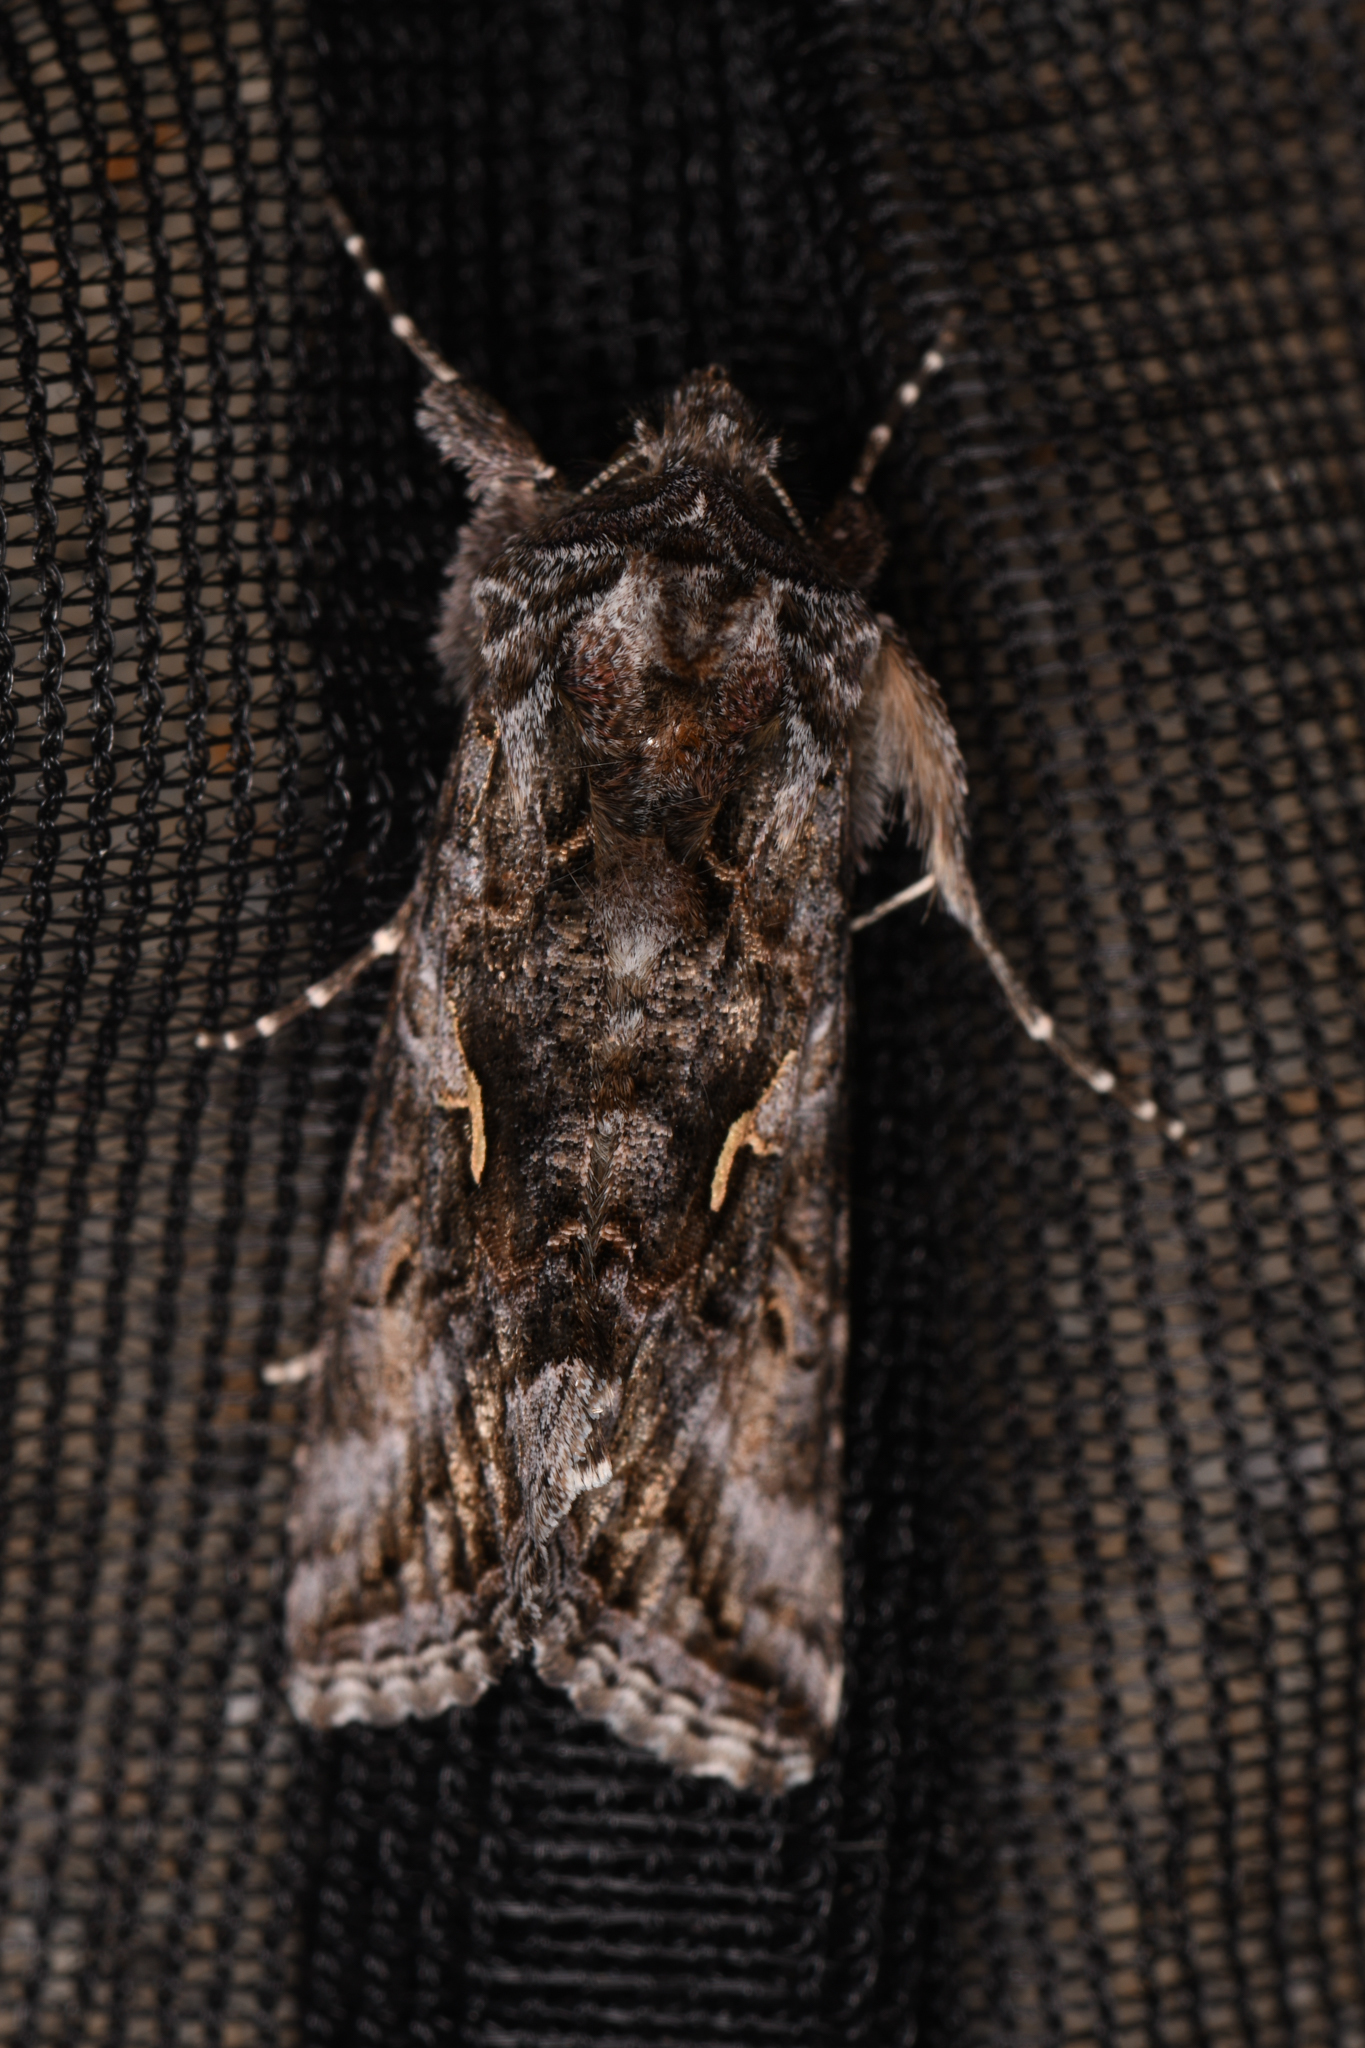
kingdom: Animalia
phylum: Arthropoda
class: Insecta
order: Lepidoptera
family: Noctuidae
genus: Autographa
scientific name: Autographa californica
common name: Alfalfa looper
